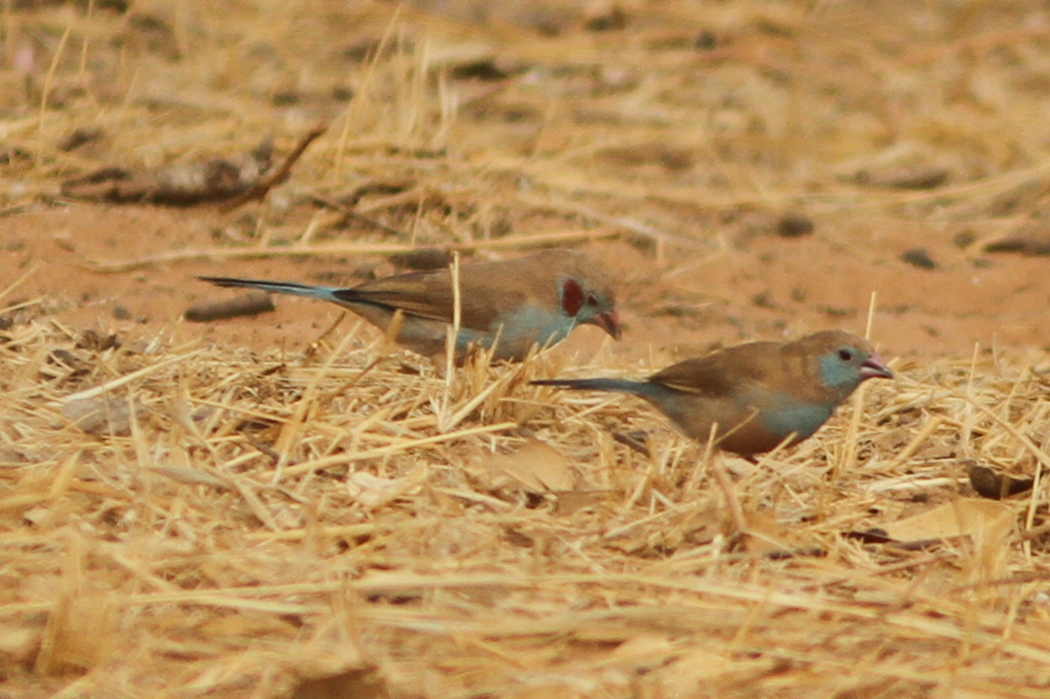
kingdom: Animalia
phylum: Chordata
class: Aves
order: Passeriformes
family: Estrildidae
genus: Uraeginthus
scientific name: Uraeginthus bengalus
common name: Red-cheeked cordon-bleu
